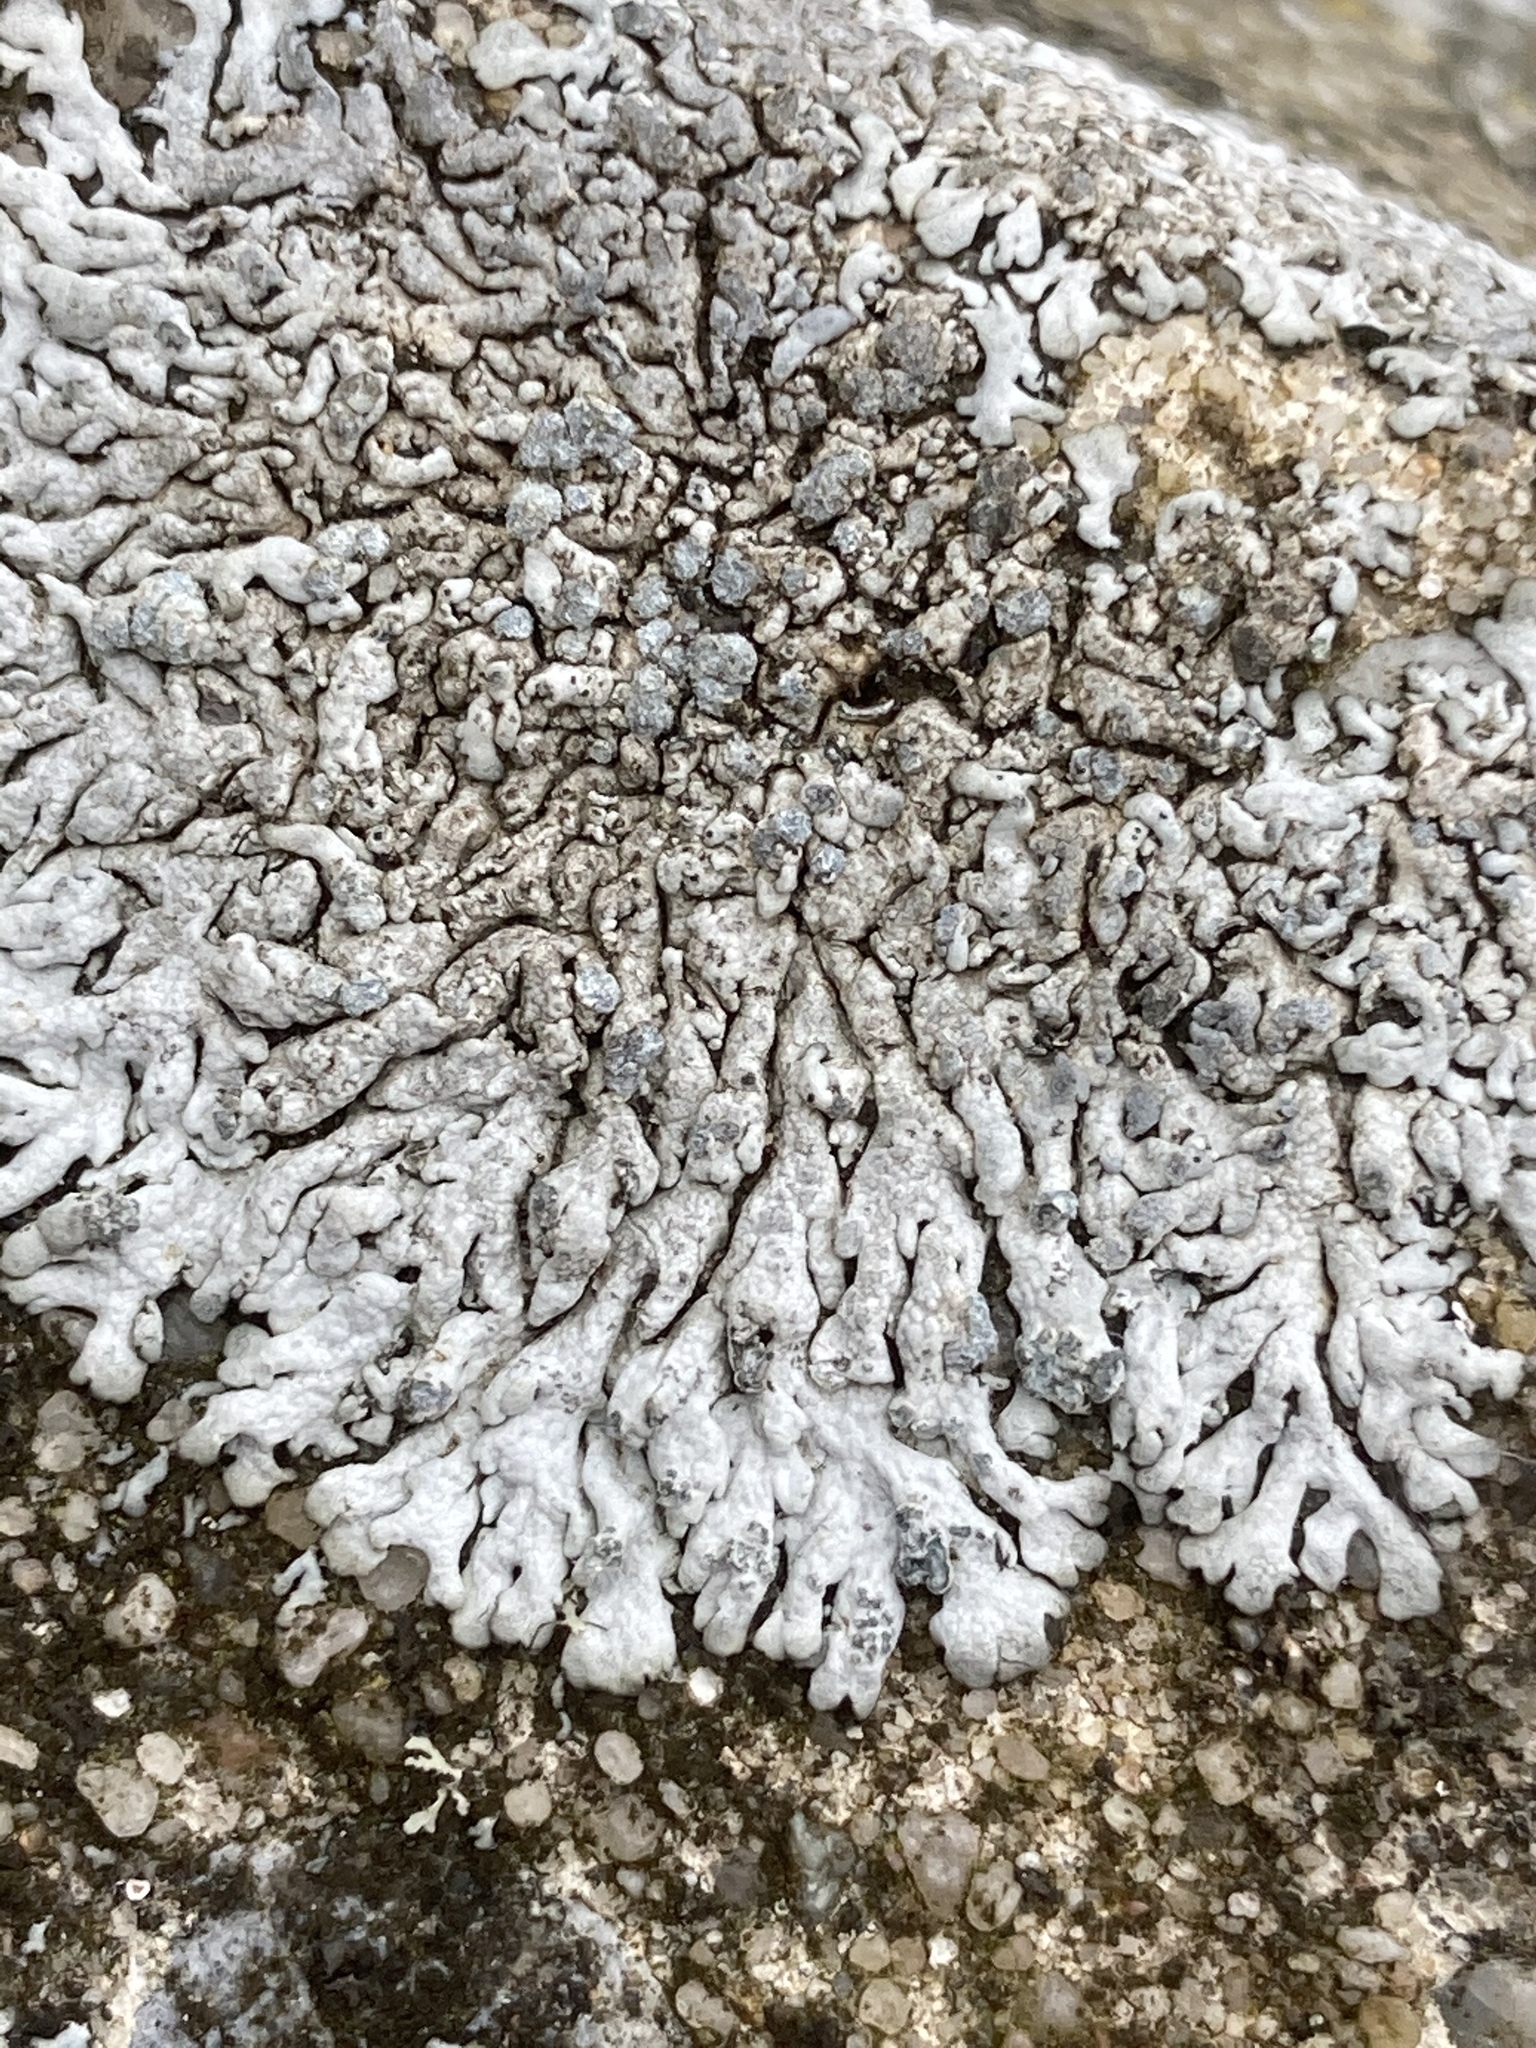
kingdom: Fungi
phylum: Ascomycota
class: Lecanoromycetes
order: Caliciales
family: Physciaceae
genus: Physcia
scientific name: Physcia caesia
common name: Blue-gray rosette lichen
